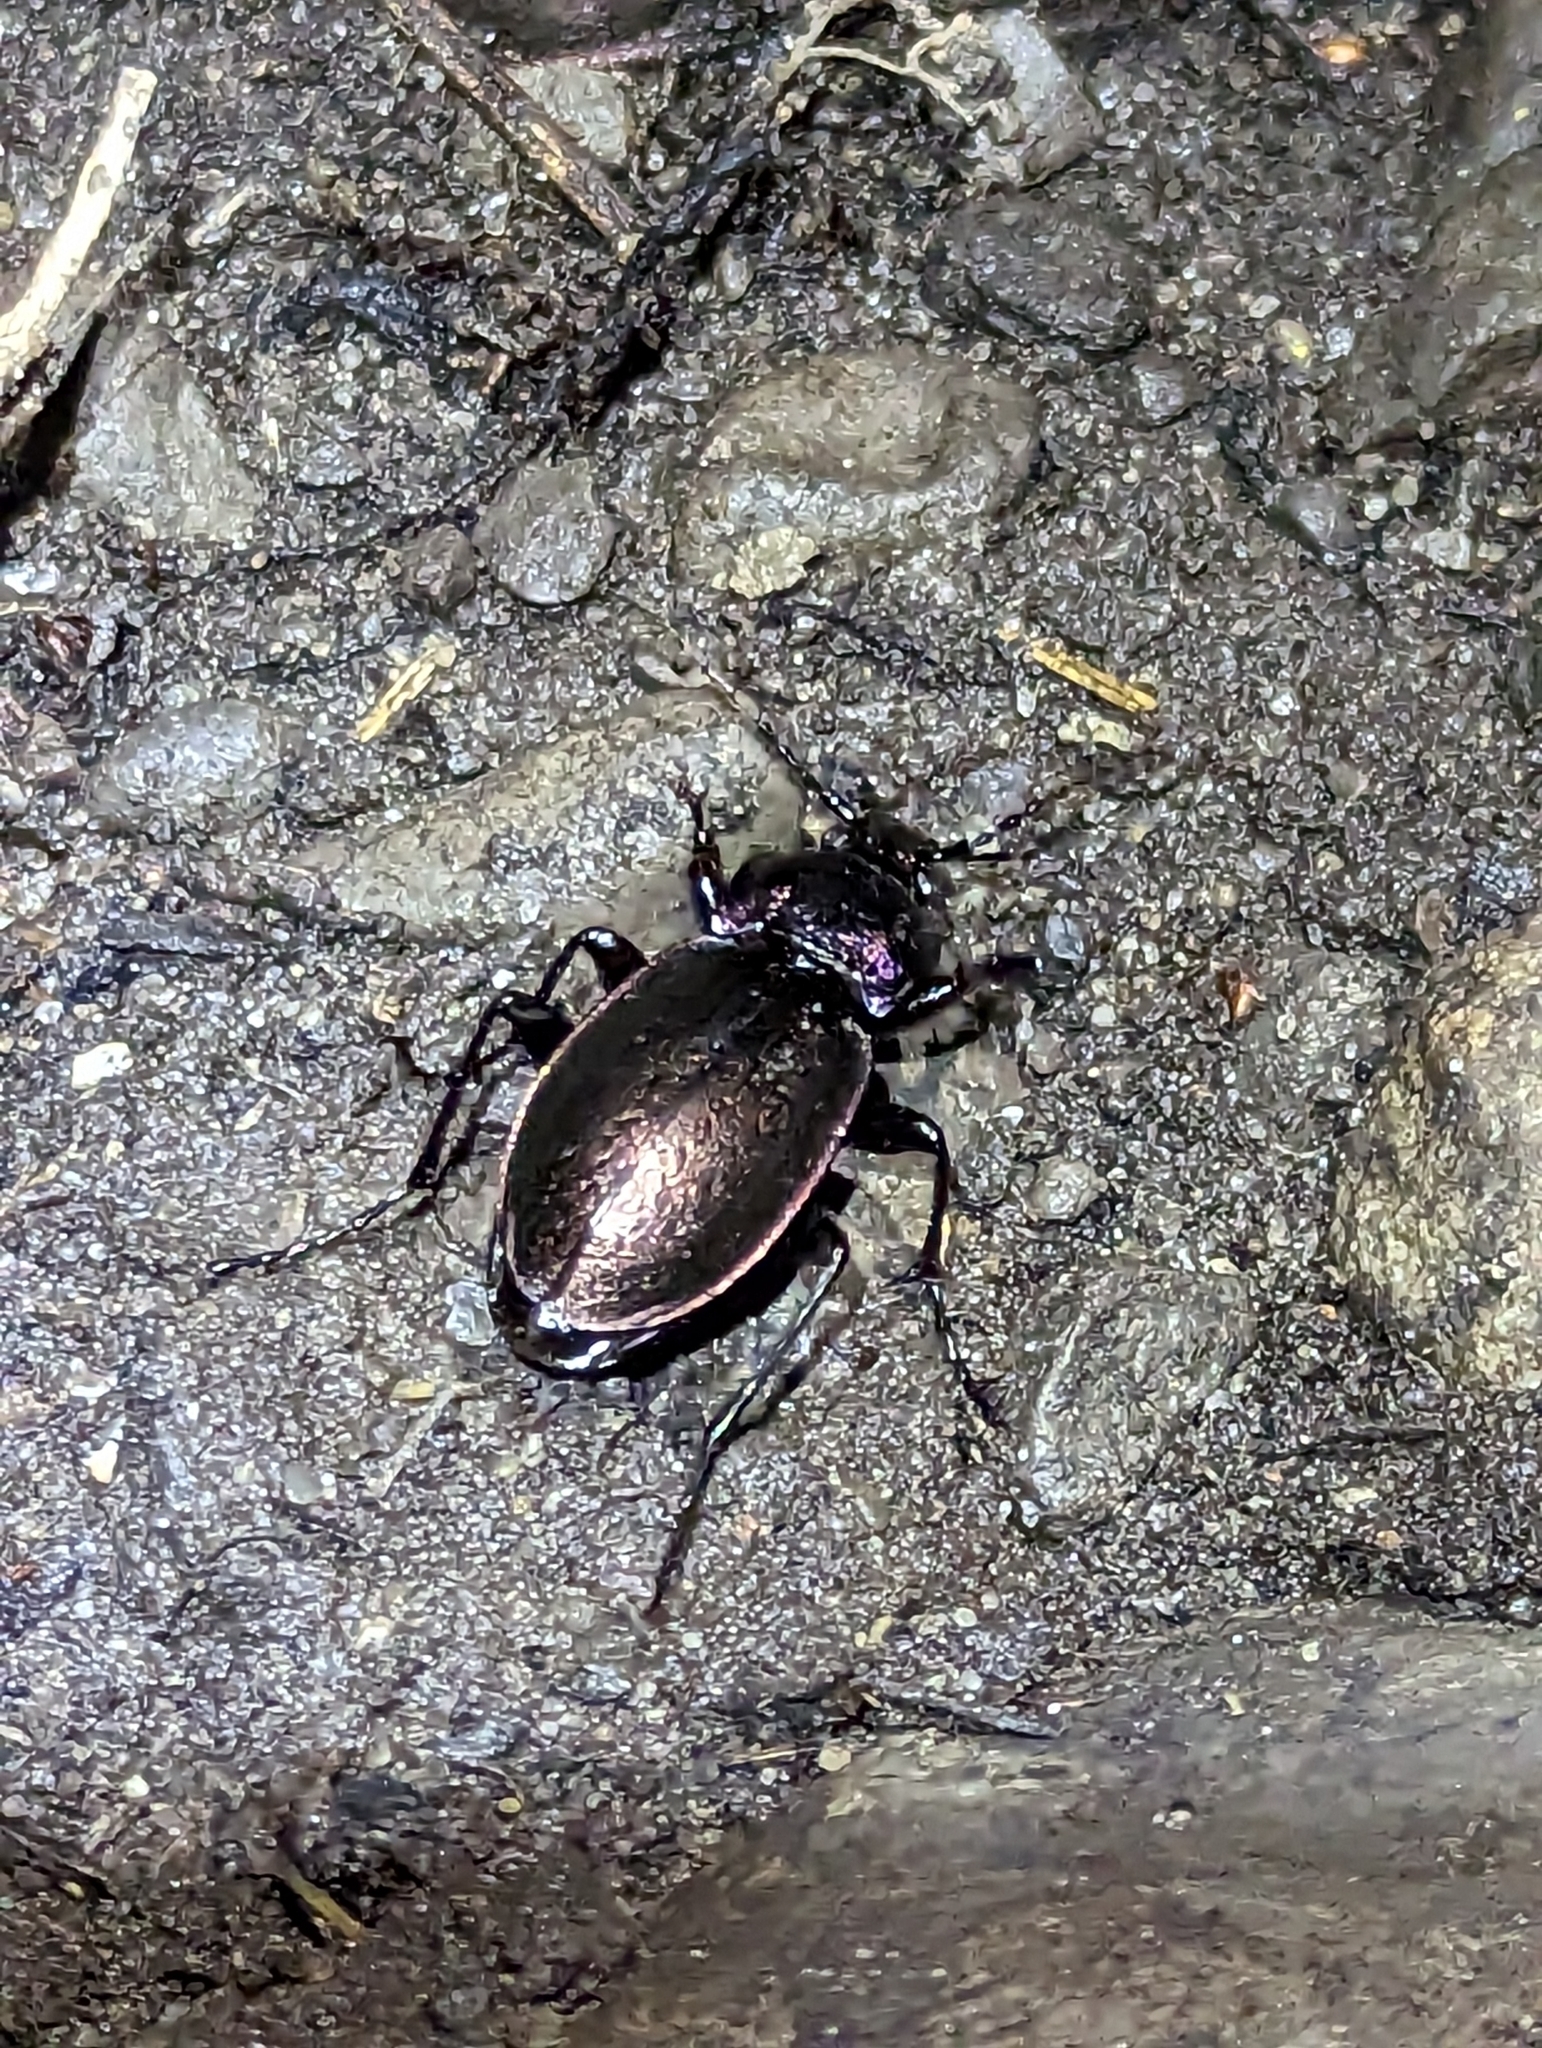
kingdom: Animalia
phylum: Arthropoda
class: Insecta
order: Coleoptera
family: Carabidae
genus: Carabus
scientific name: Carabus nemoralis
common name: European ground beetle
